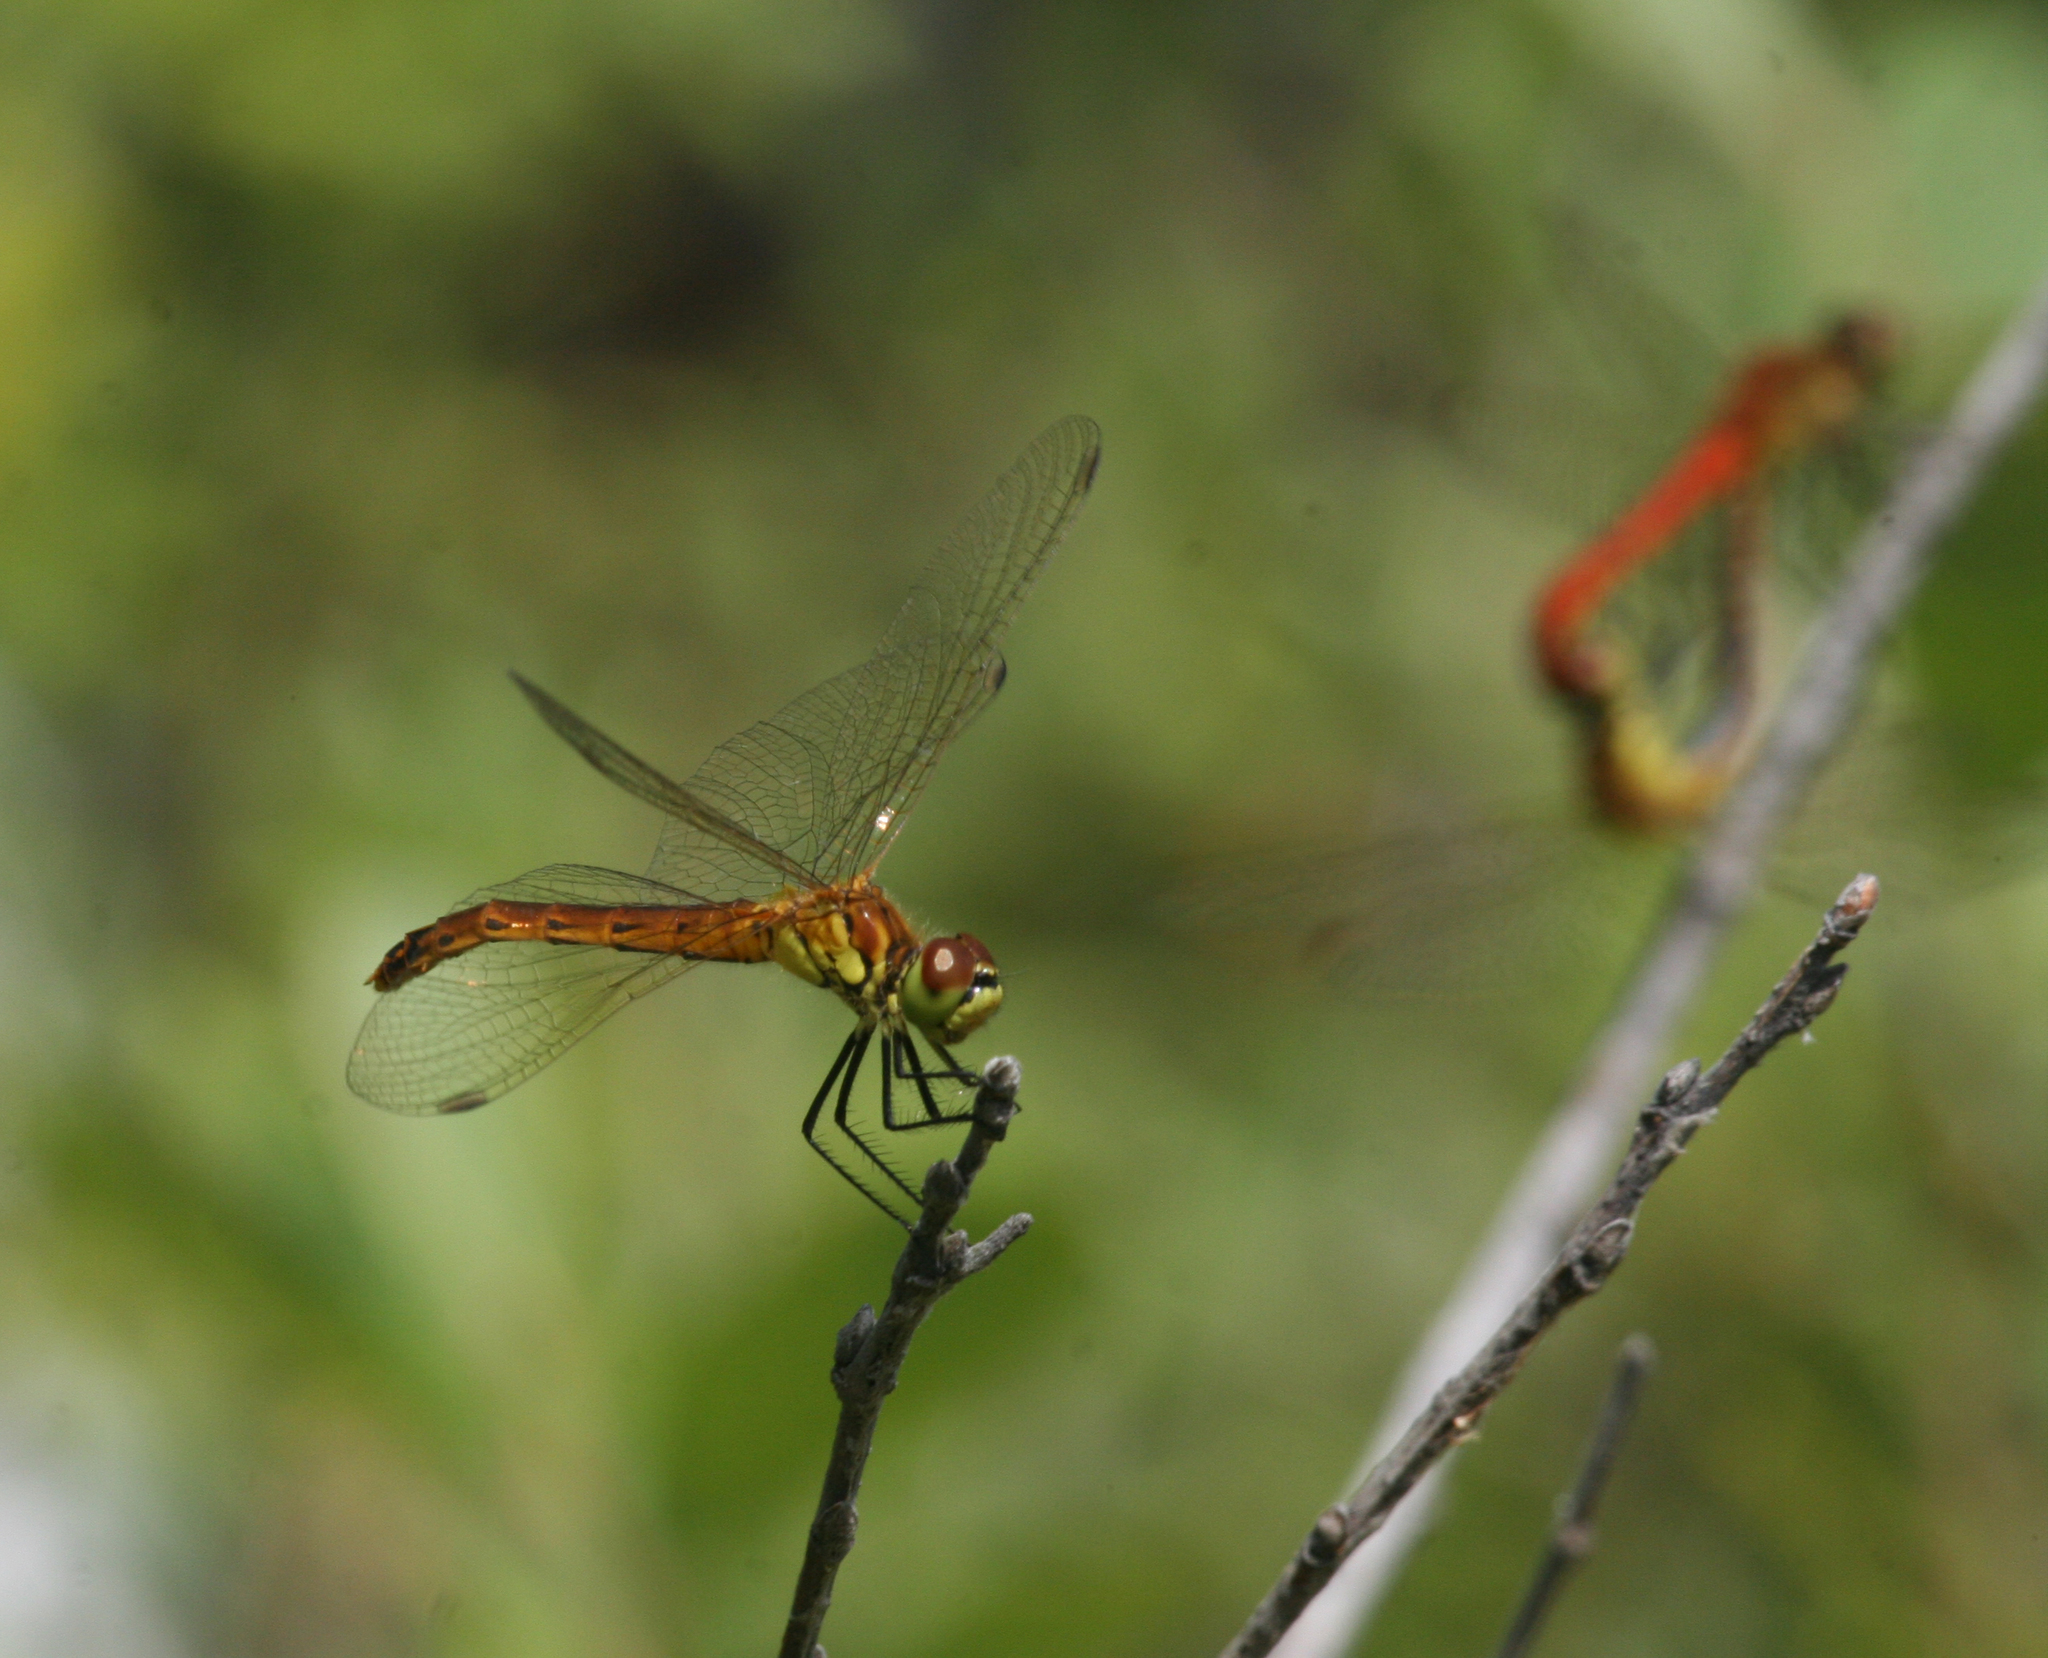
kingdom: Animalia
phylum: Arthropoda
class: Insecta
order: Odonata
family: Libellulidae
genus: Sympetrum
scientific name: Sympetrum depressiusculum
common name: Spotted darter
